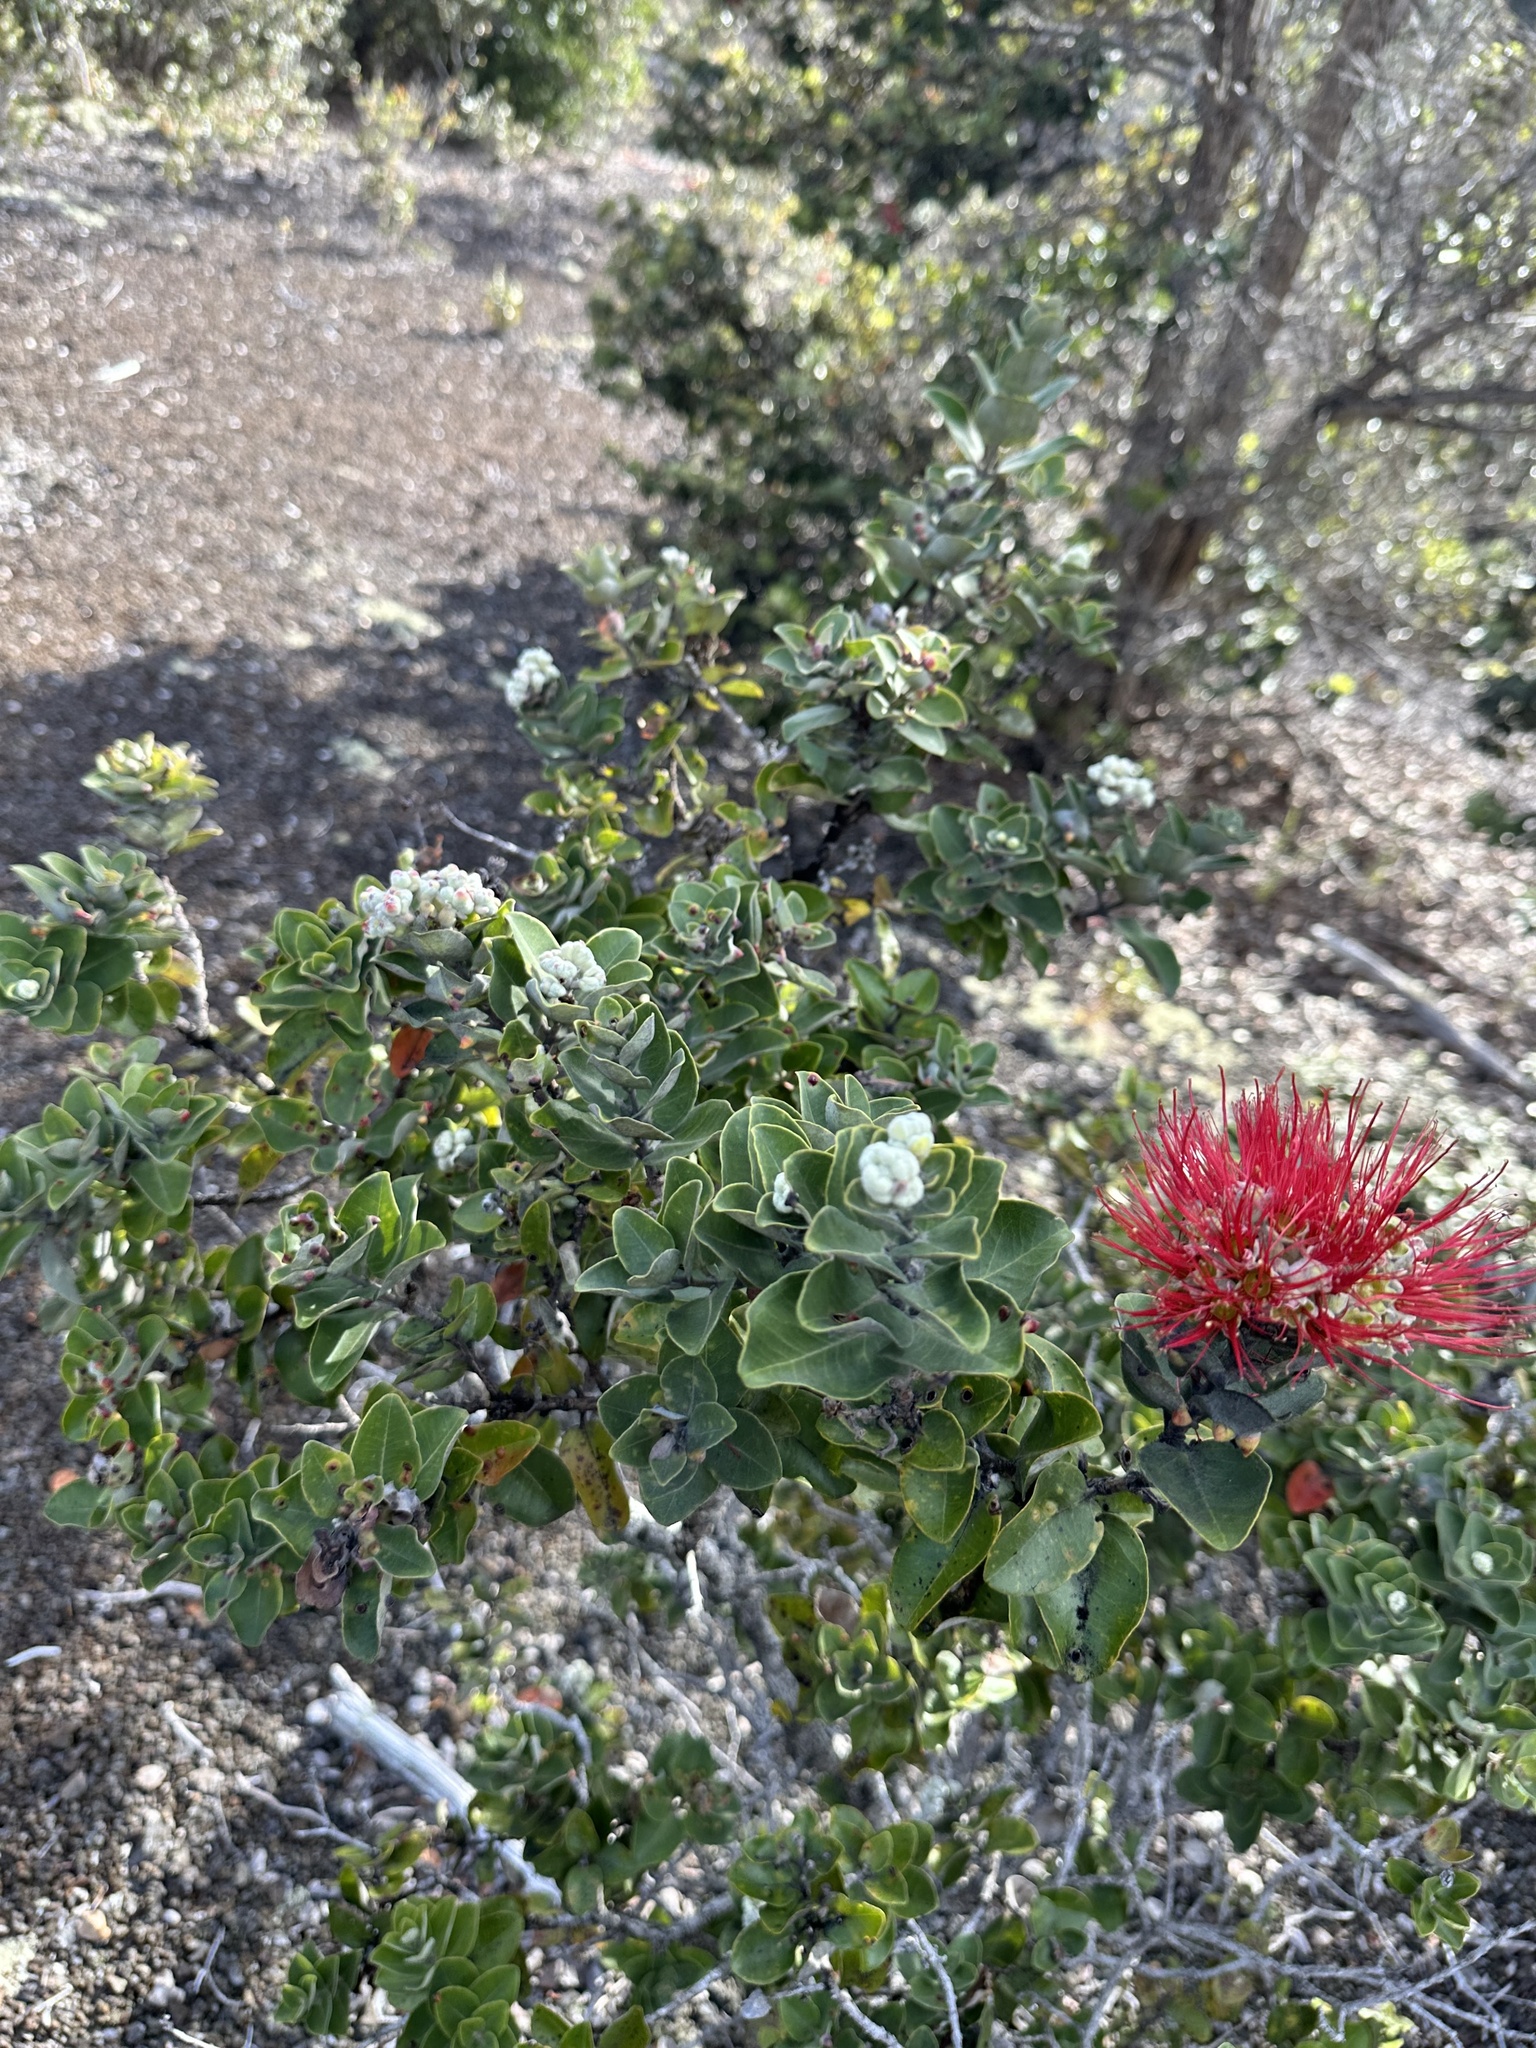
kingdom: Plantae
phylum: Tracheophyta
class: Magnoliopsida
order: Myrtales
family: Myrtaceae
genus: Metrosideros
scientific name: Metrosideros polymorpha
